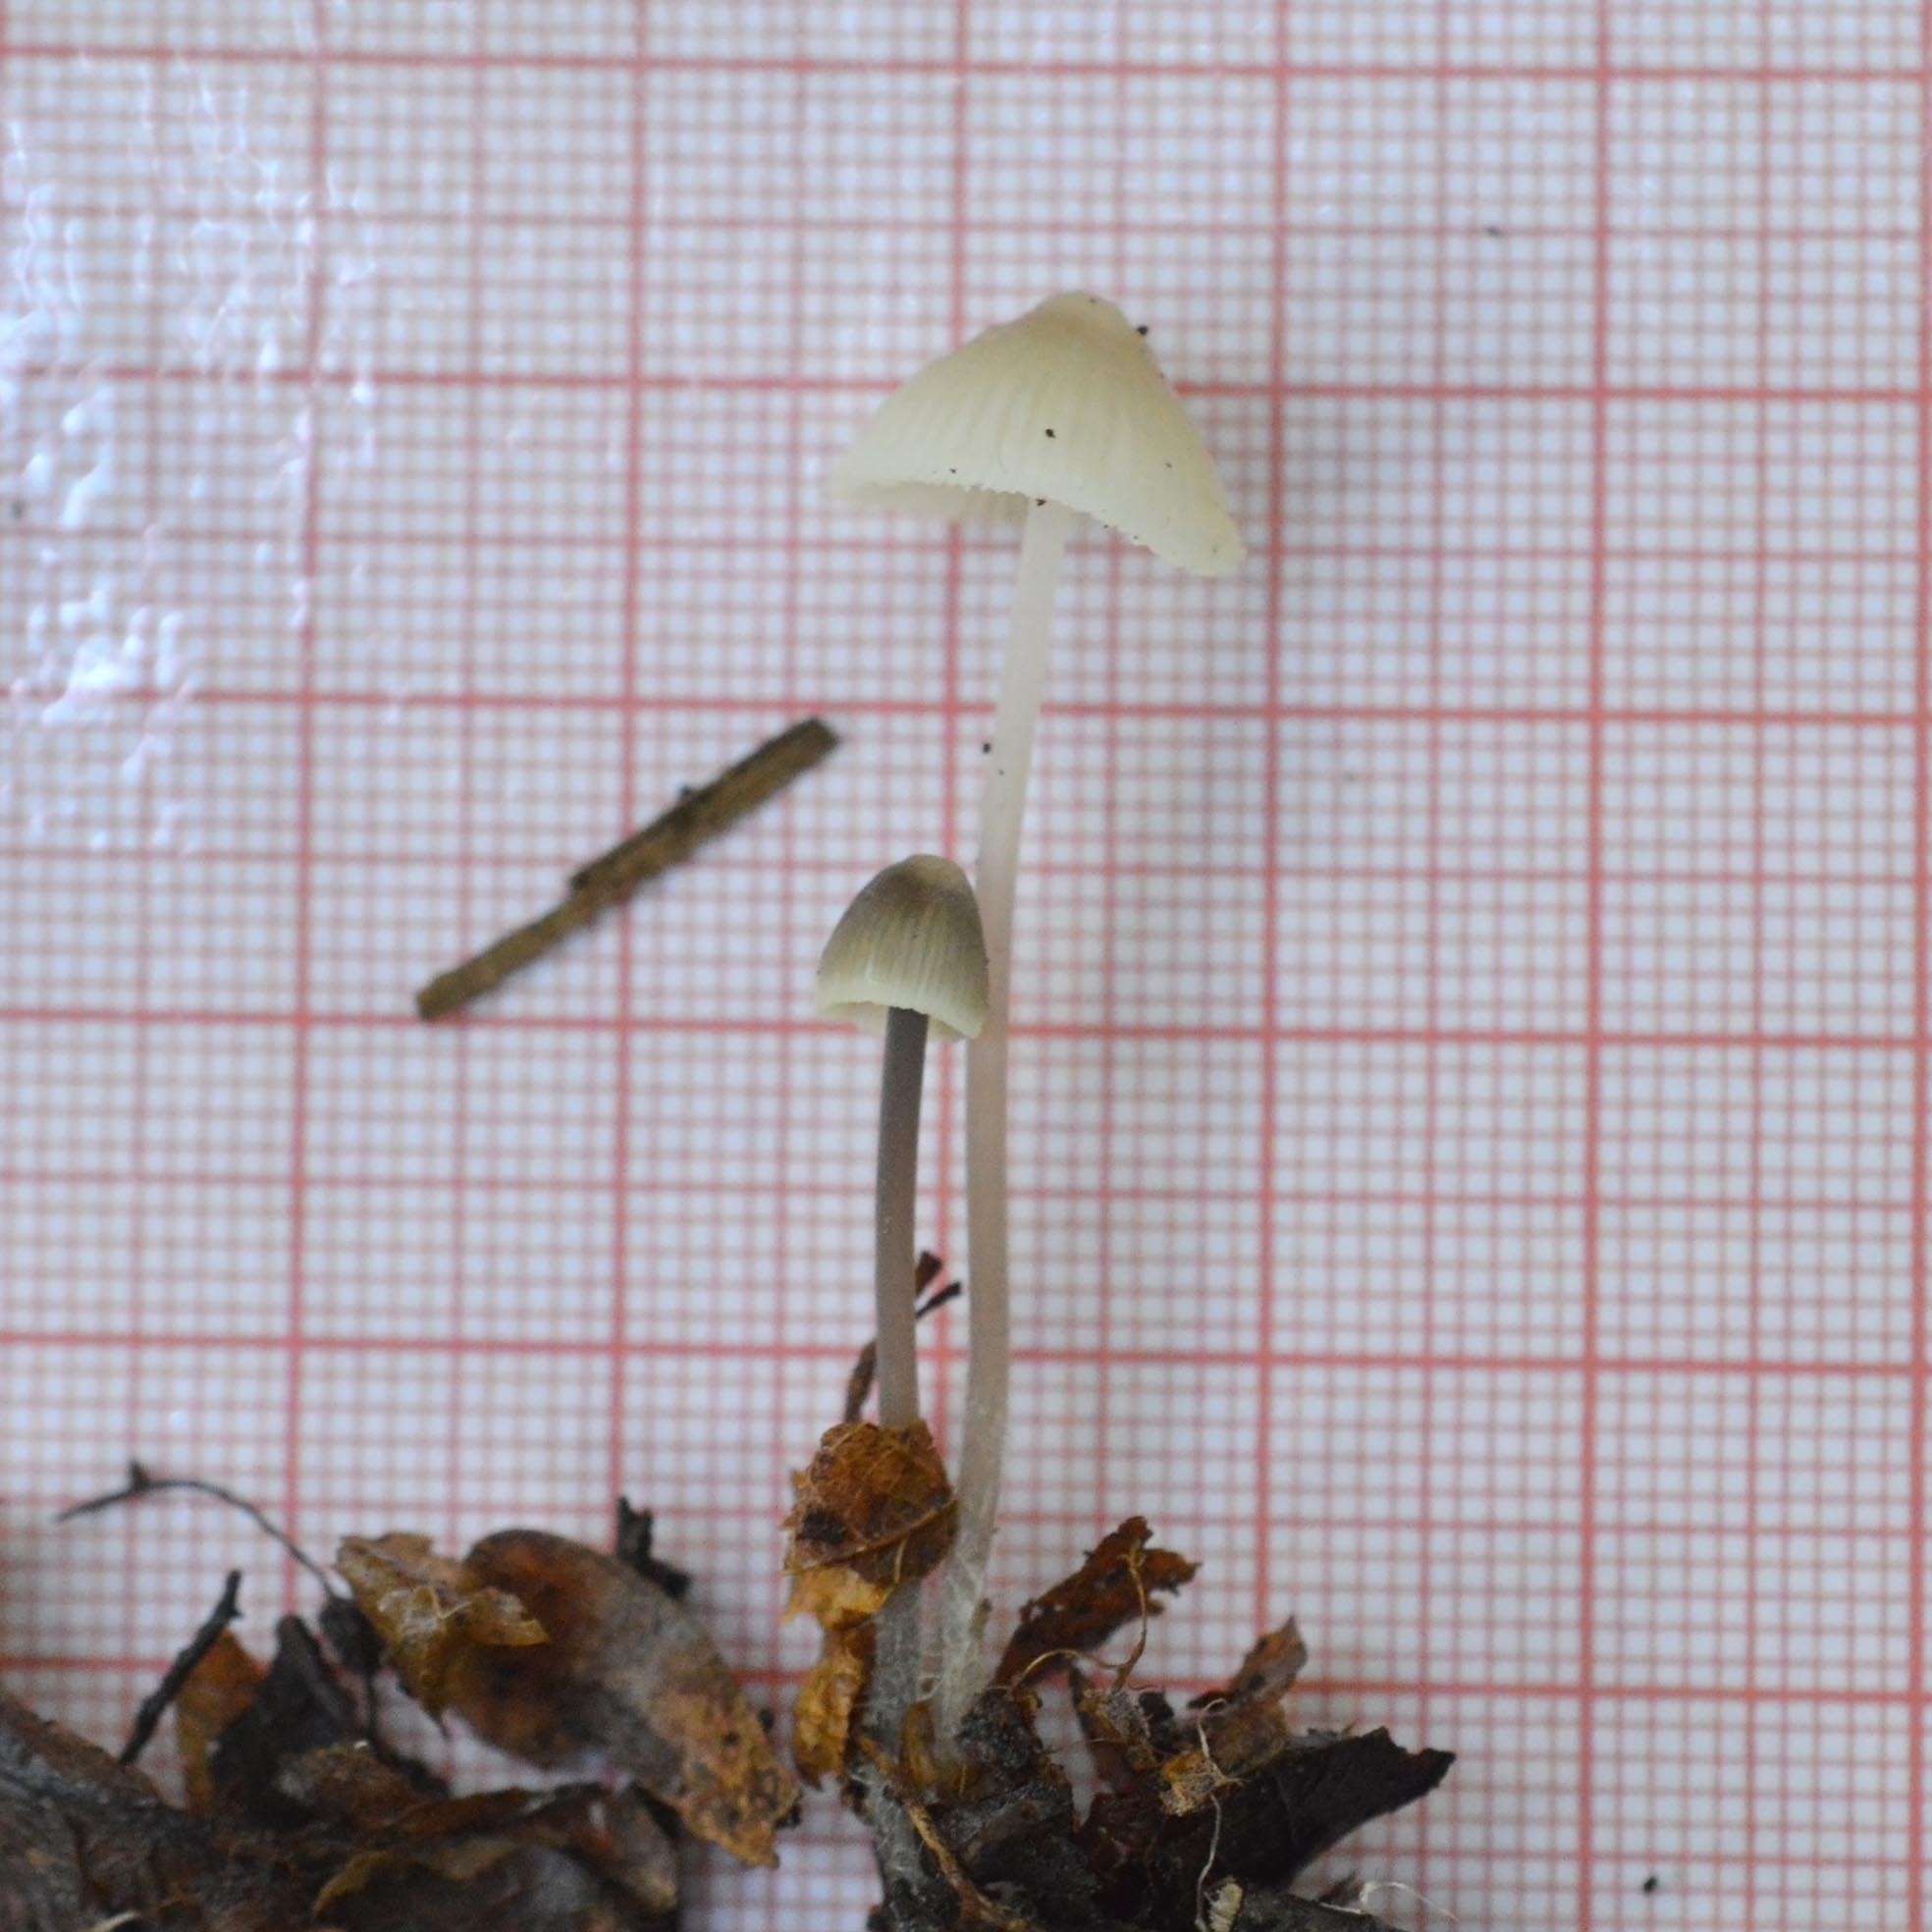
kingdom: Fungi
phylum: Basidiomycota
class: Agaricomycetes
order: Agaricales
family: Mycenaceae
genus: Mycena
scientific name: Mycena xantholeuca
